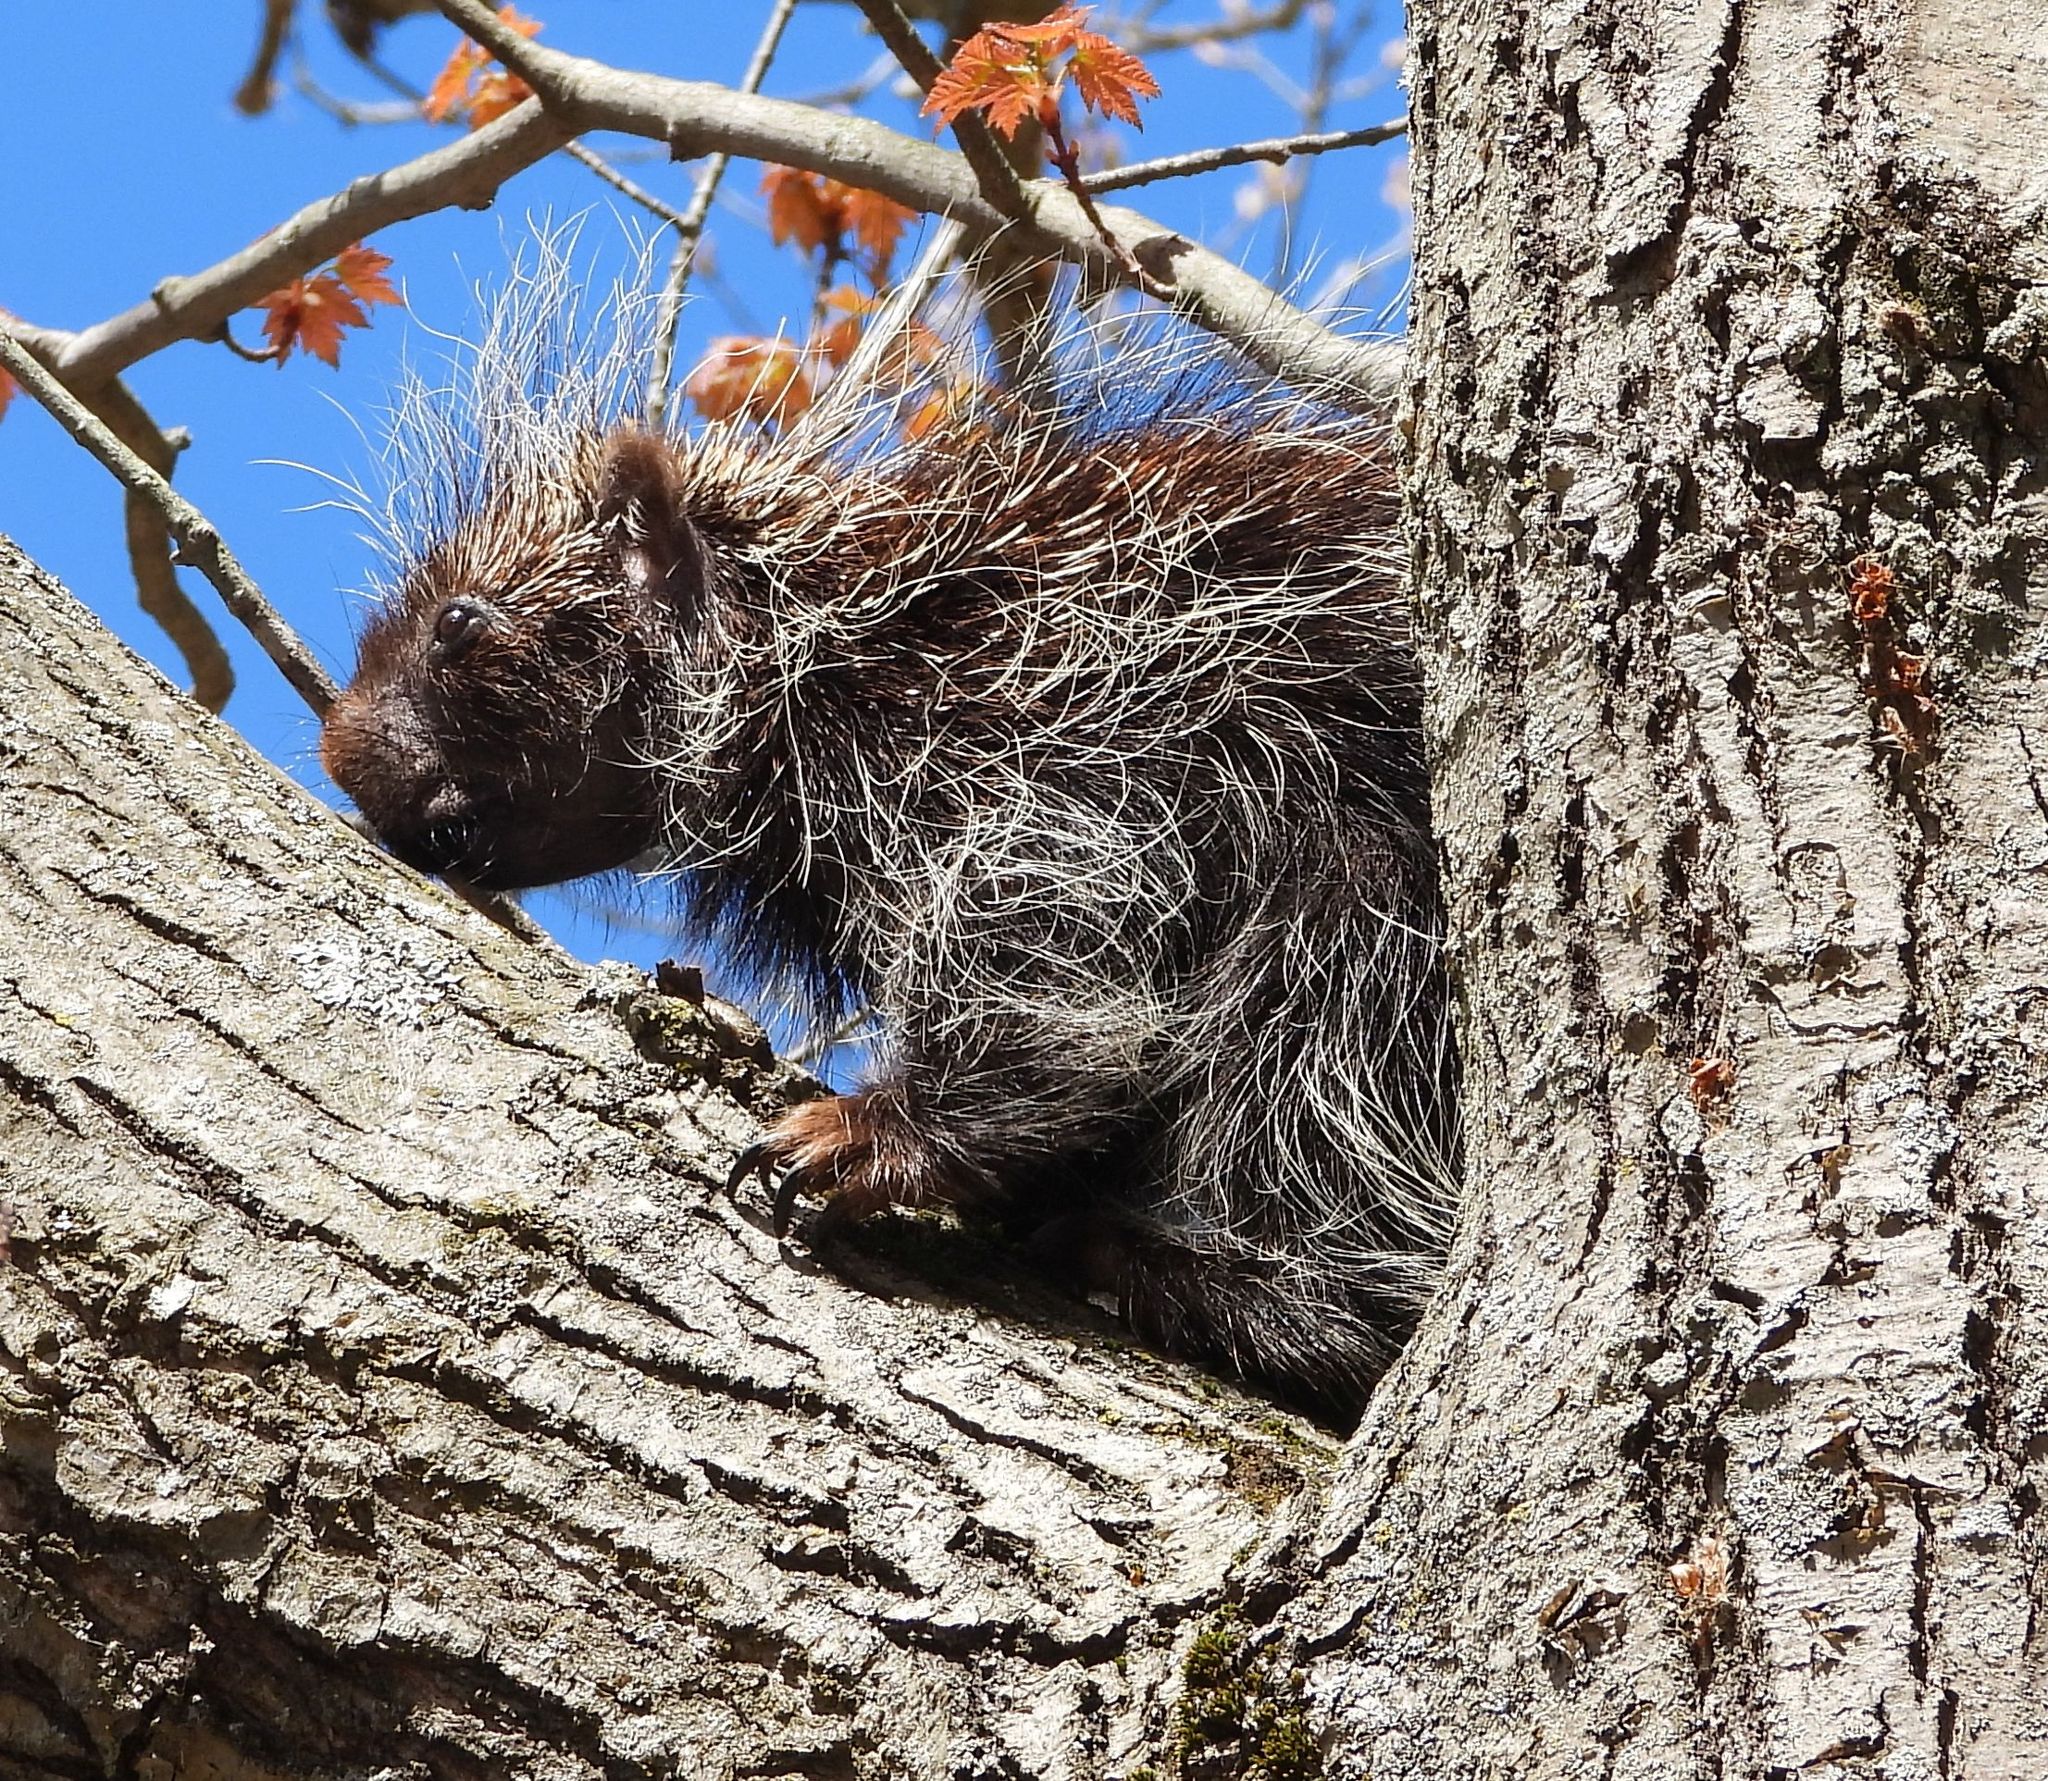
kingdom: Animalia
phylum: Chordata
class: Mammalia
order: Rodentia
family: Erethizontidae
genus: Erethizon
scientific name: Erethizon dorsatus
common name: North american porcupine
